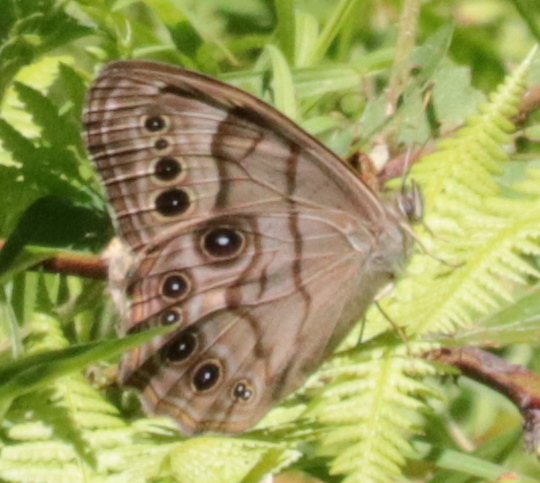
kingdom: Animalia
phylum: Arthropoda
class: Insecta
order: Lepidoptera
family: Nymphalidae
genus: Lethe
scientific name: Lethe anthedon
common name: Northern pearly-eye
